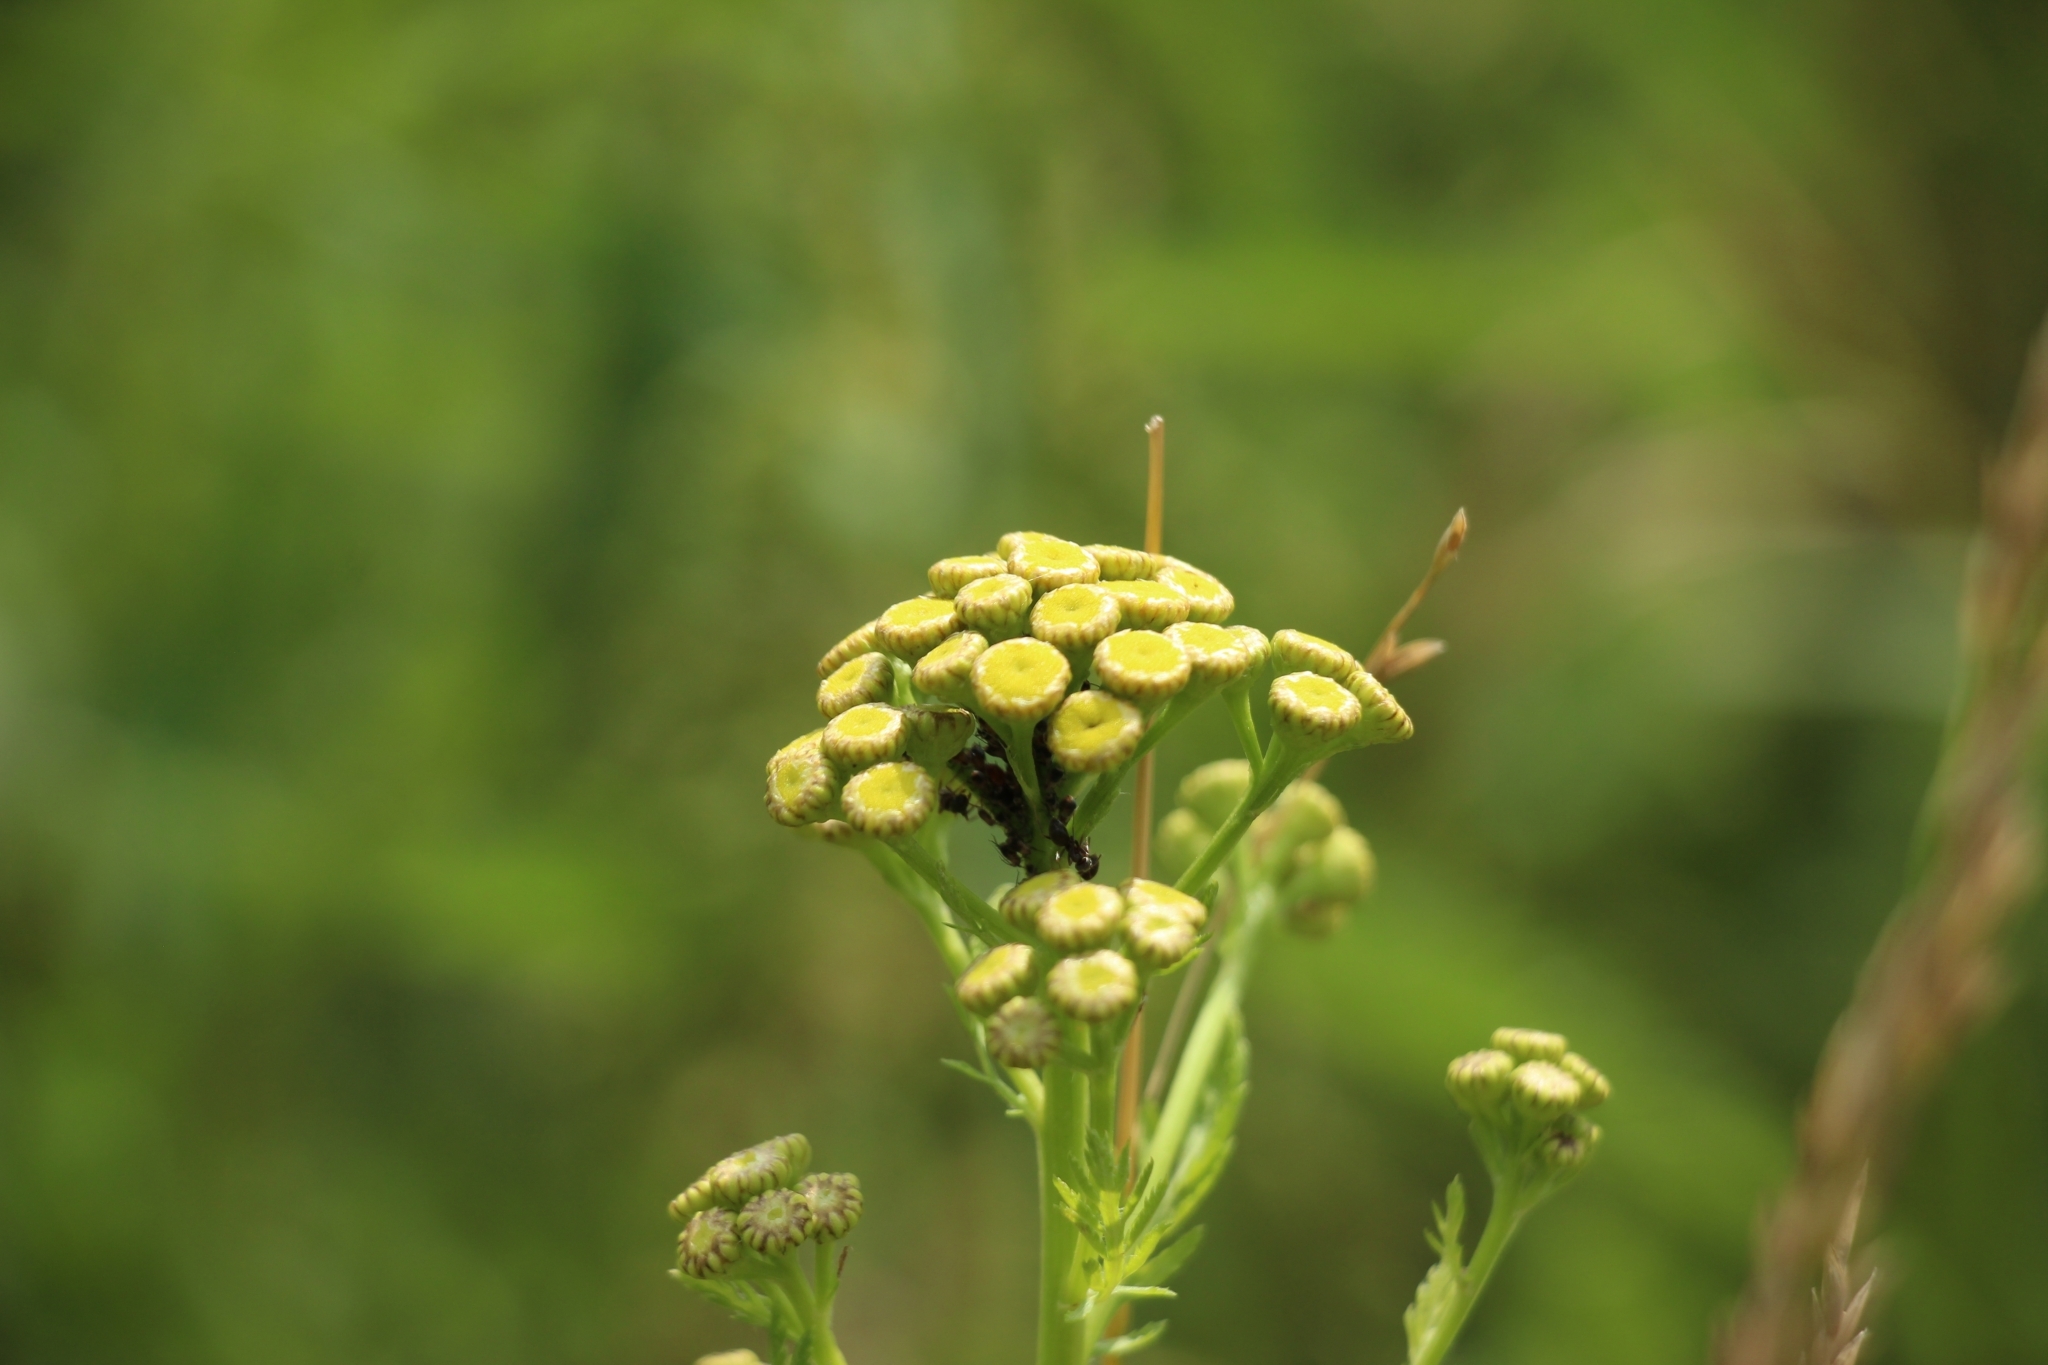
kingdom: Plantae
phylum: Tracheophyta
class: Magnoliopsida
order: Asterales
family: Asteraceae
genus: Tanacetum
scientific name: Tanacetum vulgare
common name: Common tansy
